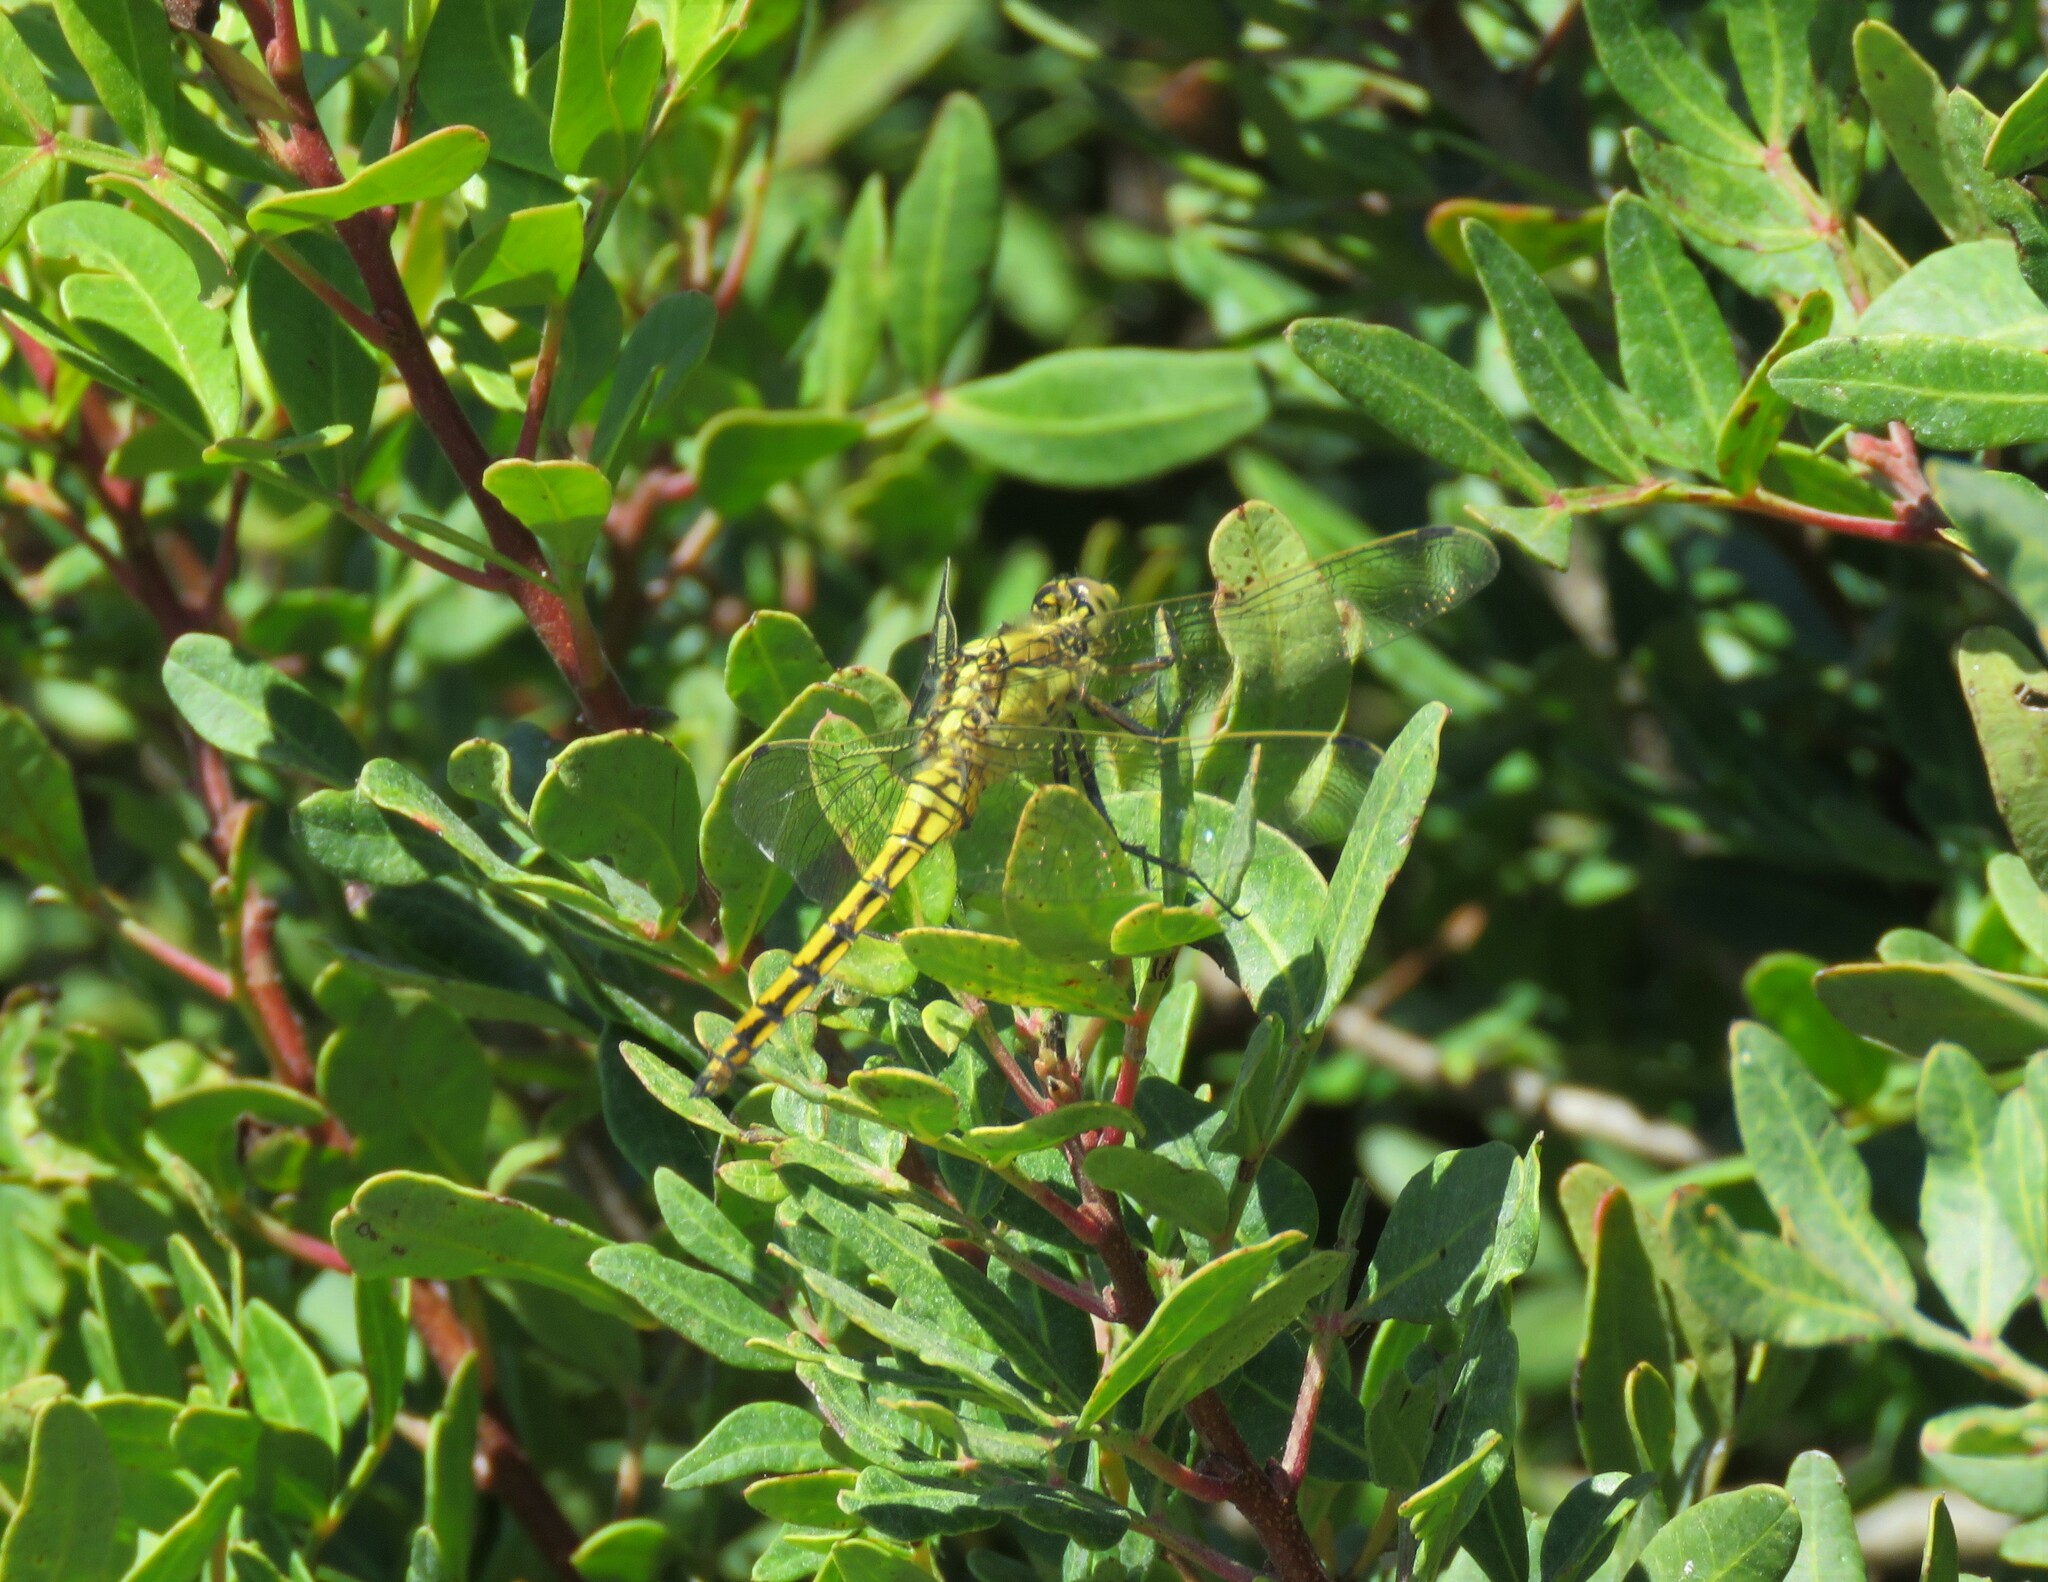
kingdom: Animalia
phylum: Arthropoda
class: Insecta
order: Odonata
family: Libellulidae
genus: Orthetrum
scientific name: Orthetrum cancellatum
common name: Black-tailed skimmer
